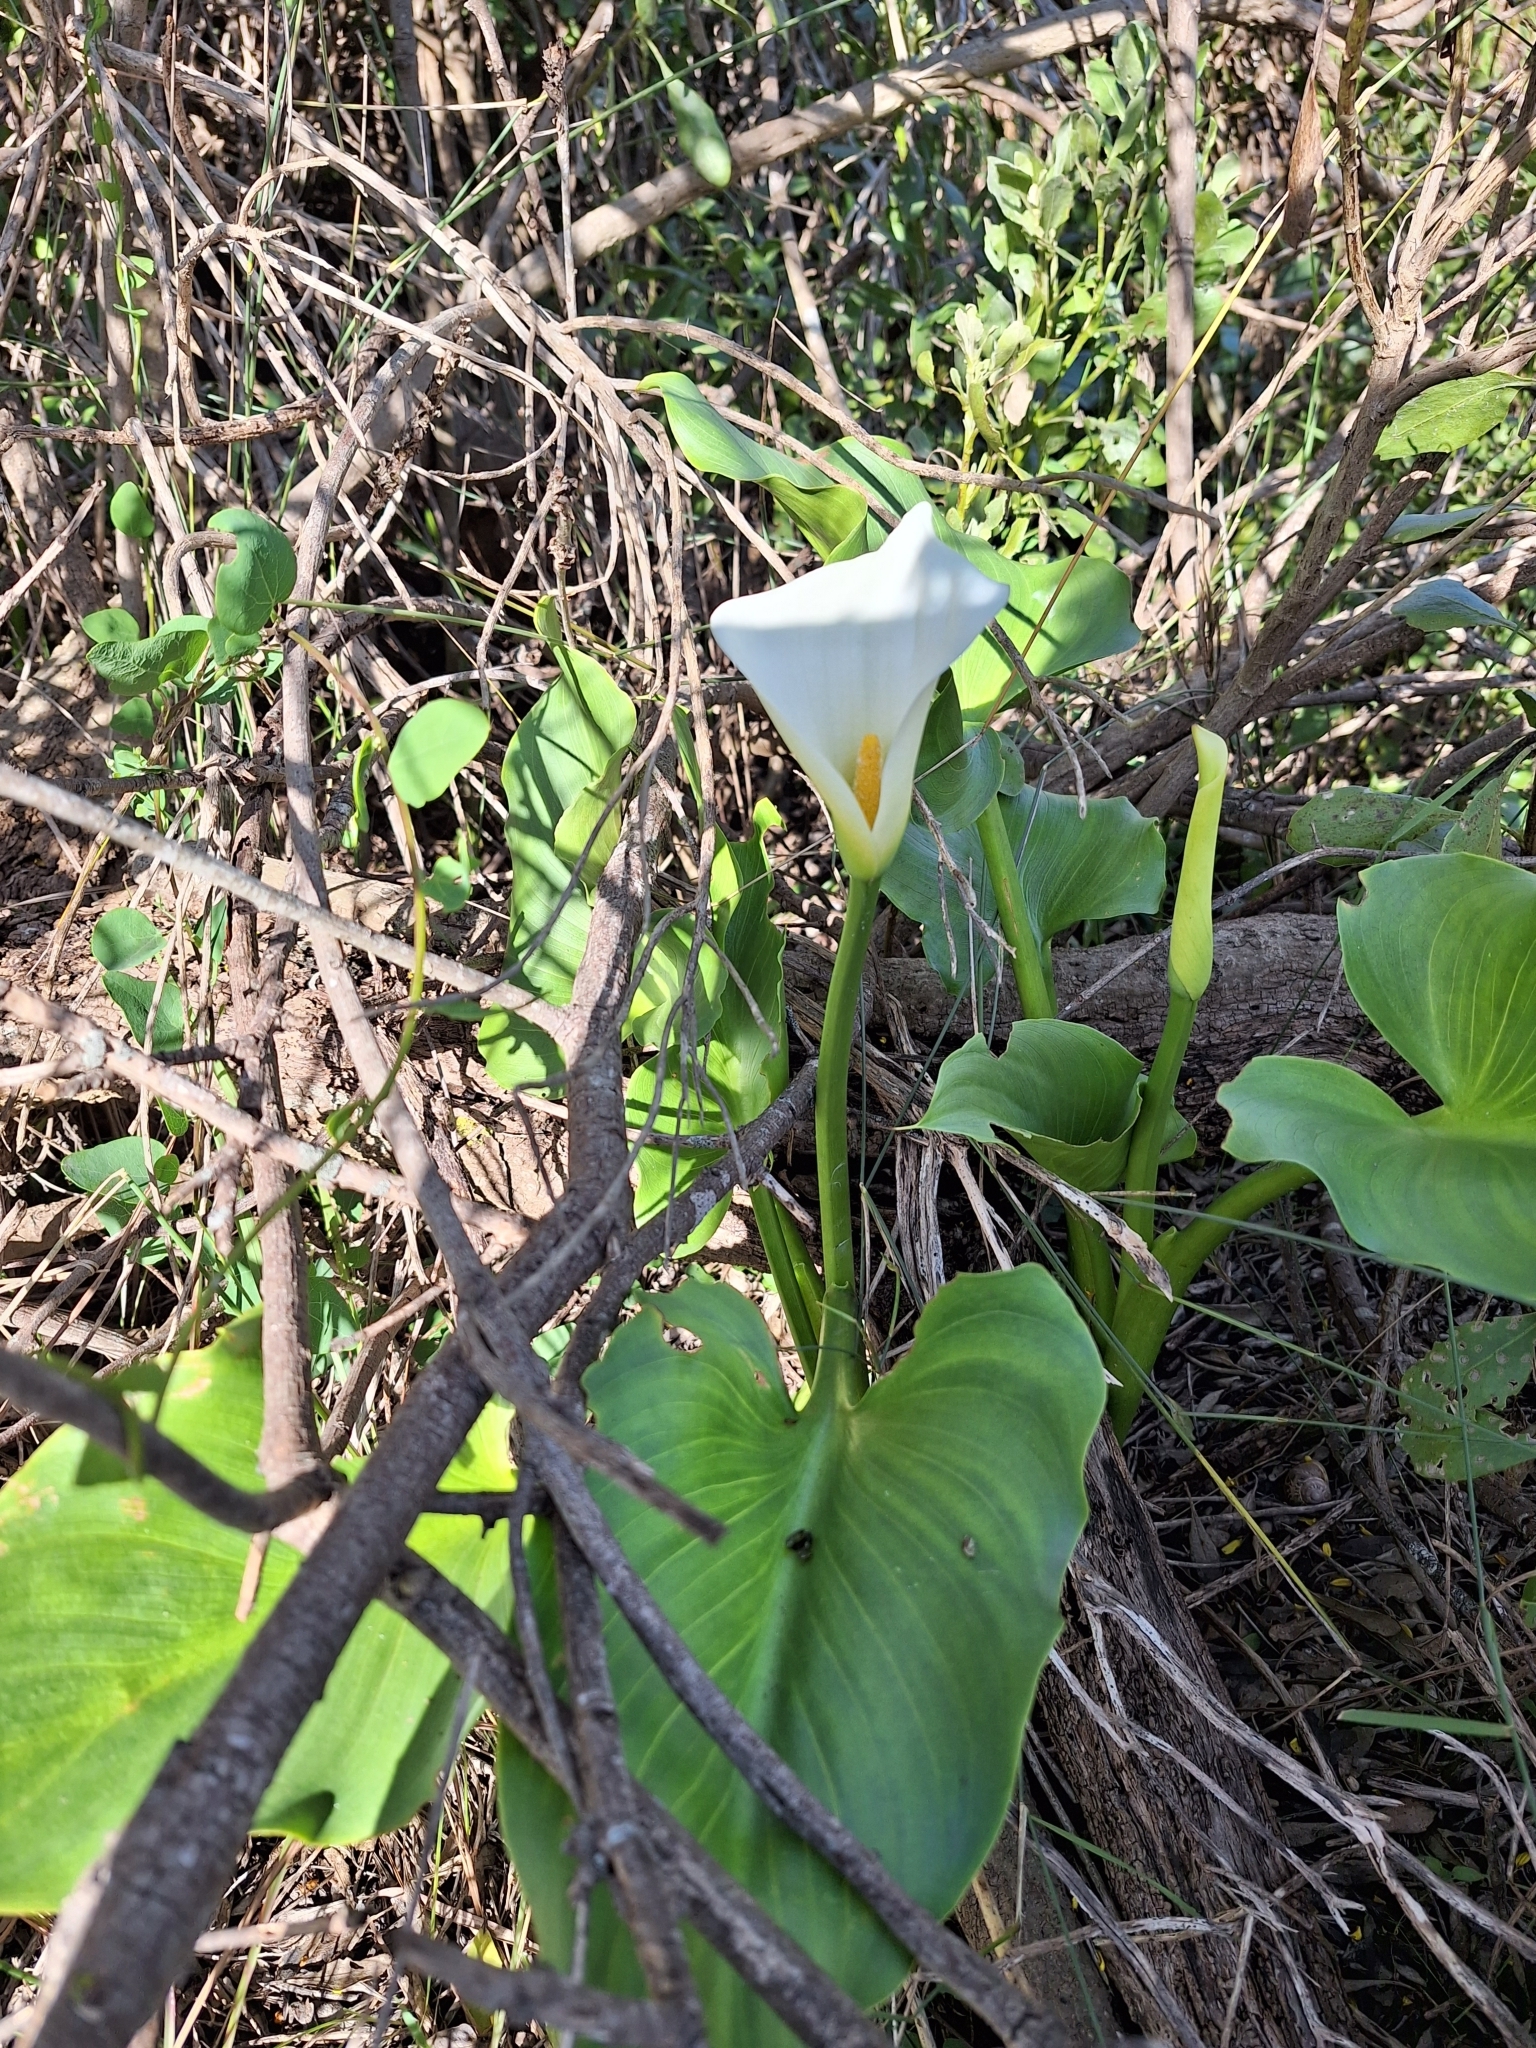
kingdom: Plantae
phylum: Tracheophyta
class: Liliopsida
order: Alismatales
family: Araceae
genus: Zantedeschia
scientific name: Zantedeschia aethiopica
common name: Altar-lily
